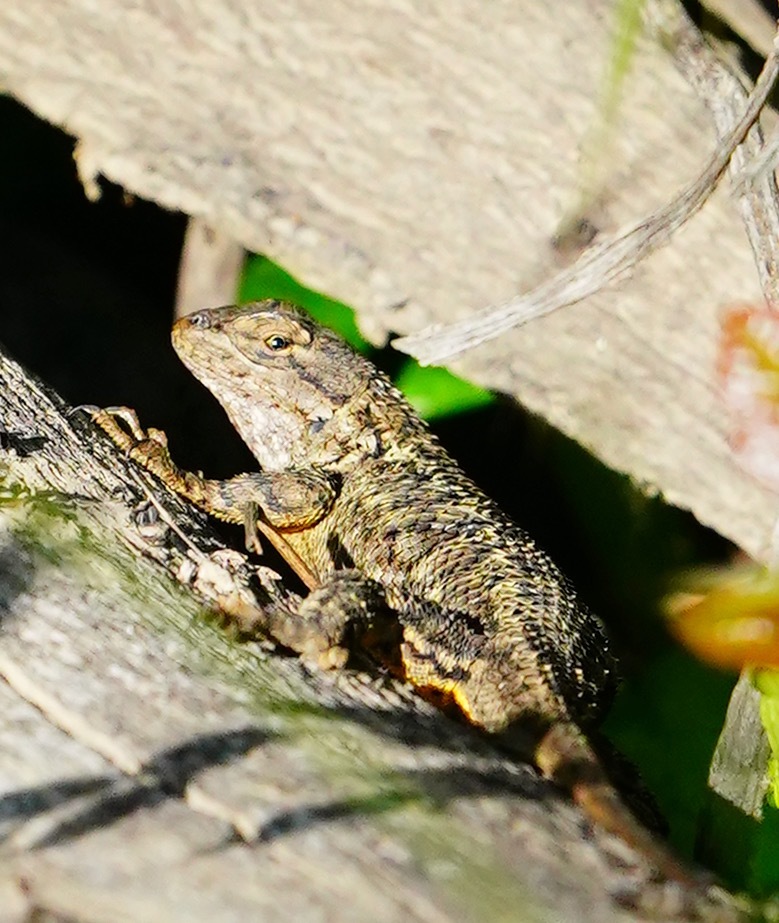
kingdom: Animalia
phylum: Chordata
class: Squamata
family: Phrynosomatidae
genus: Sceloporus
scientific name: Sceloporus occidentalis
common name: Western fence lizard
